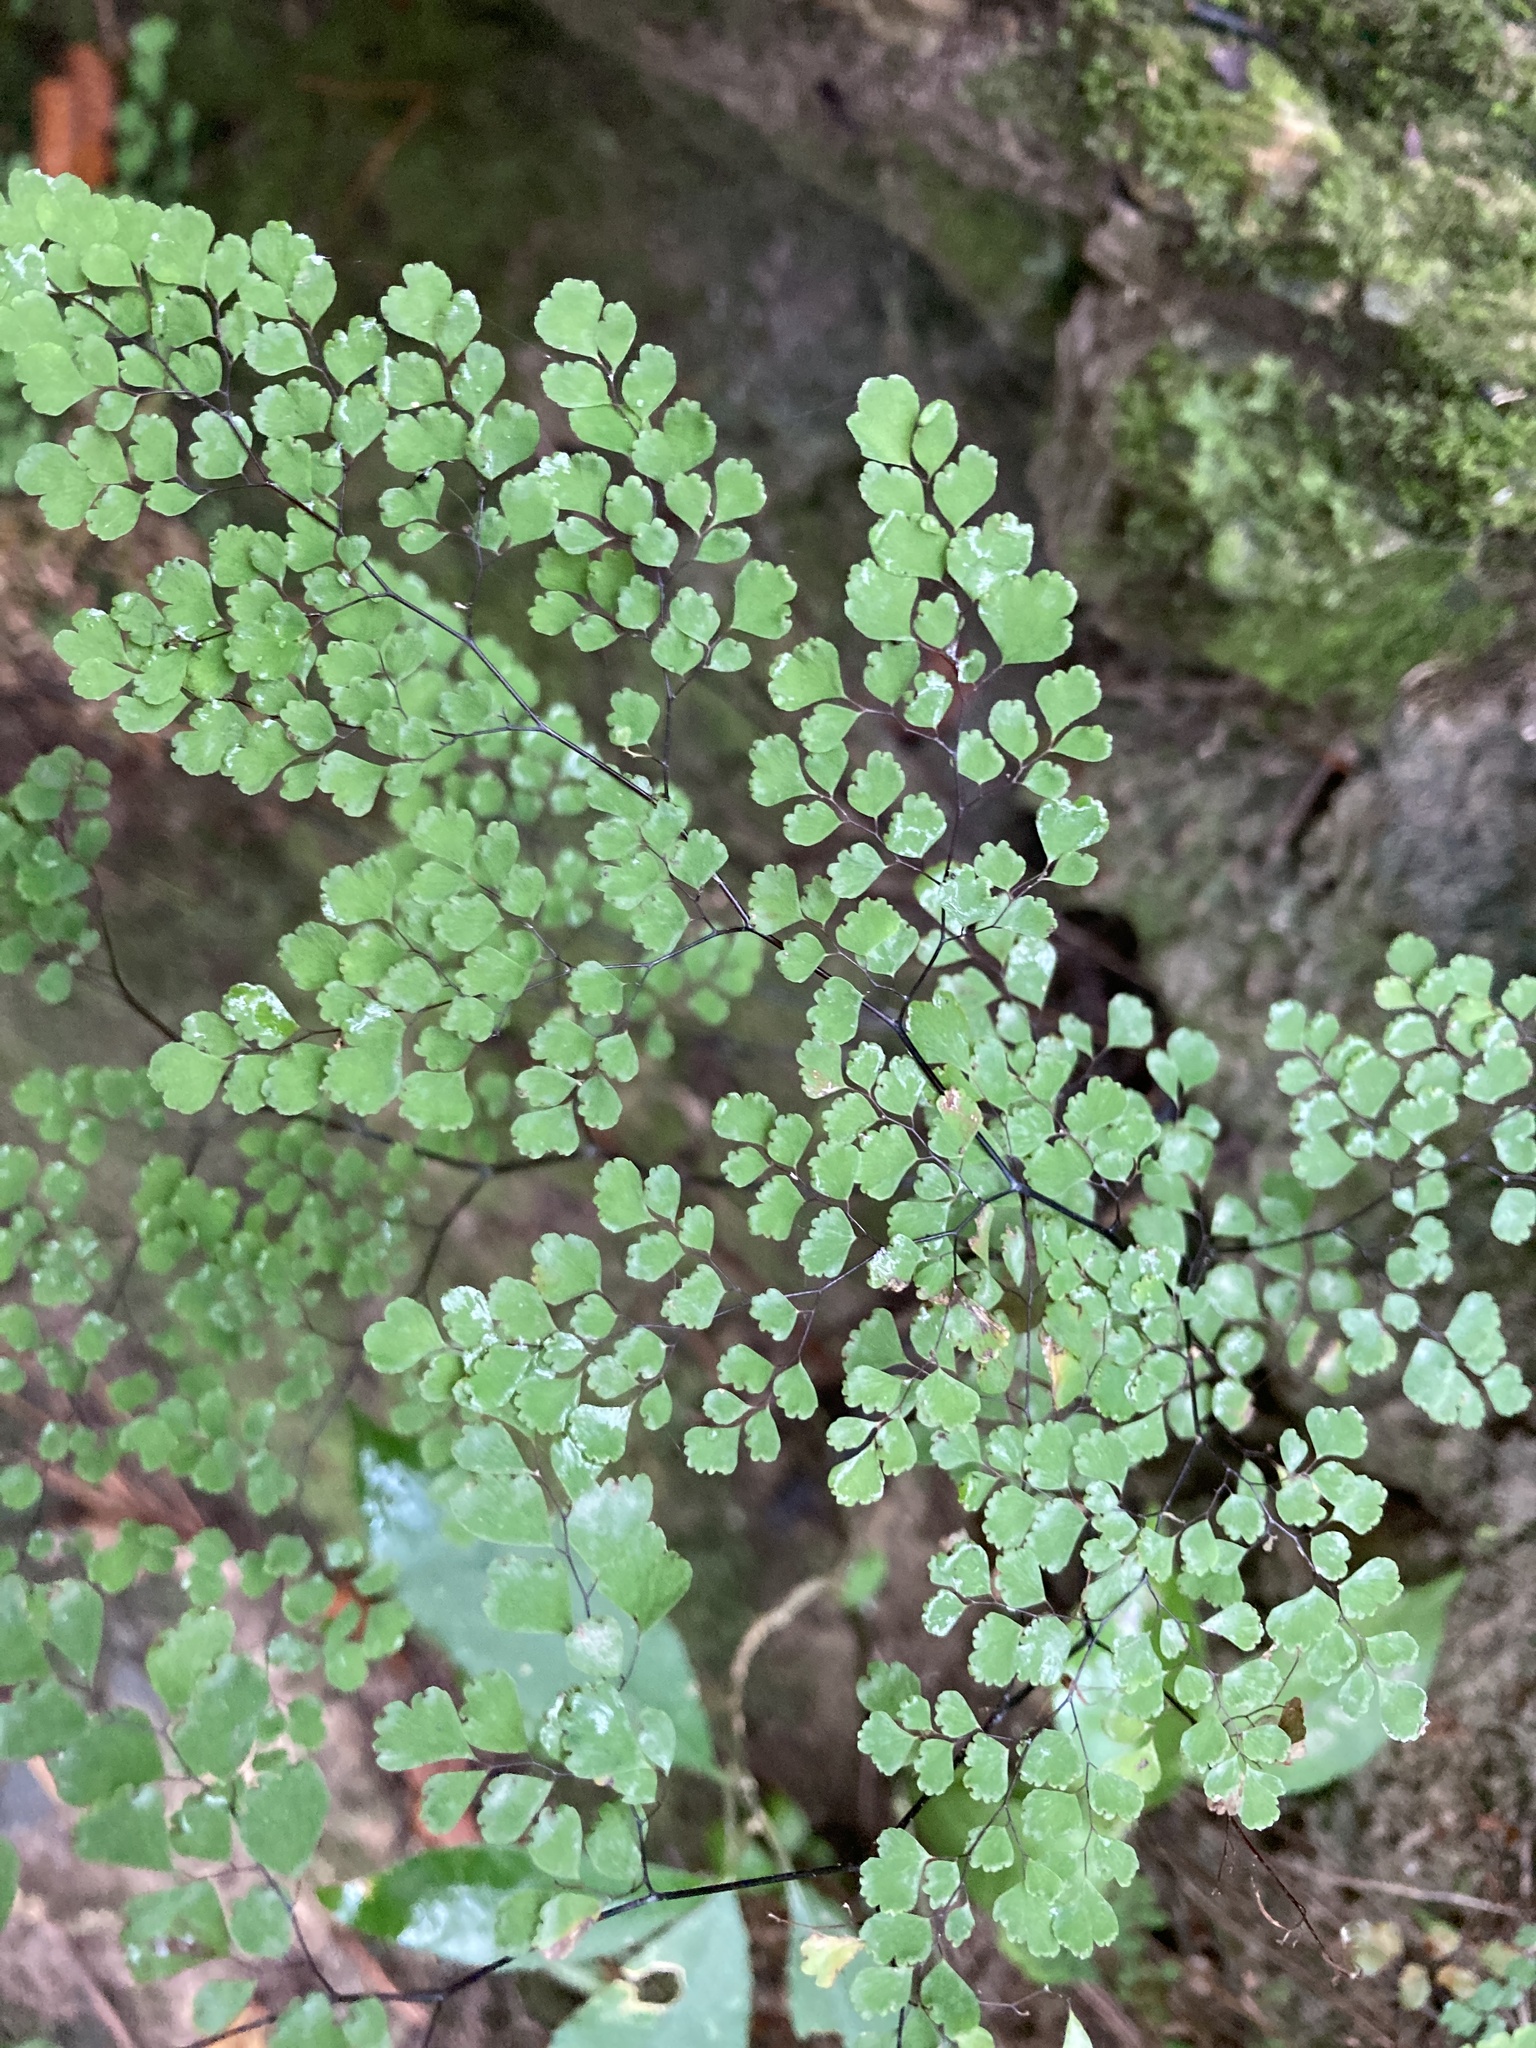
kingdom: Plantae
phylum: Tracheophyta
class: Polypodiopsida
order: Polypodiales
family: Pteridaceae
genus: Adiantum
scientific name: Adiantum raddianum
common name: Delta maidenhair fern
